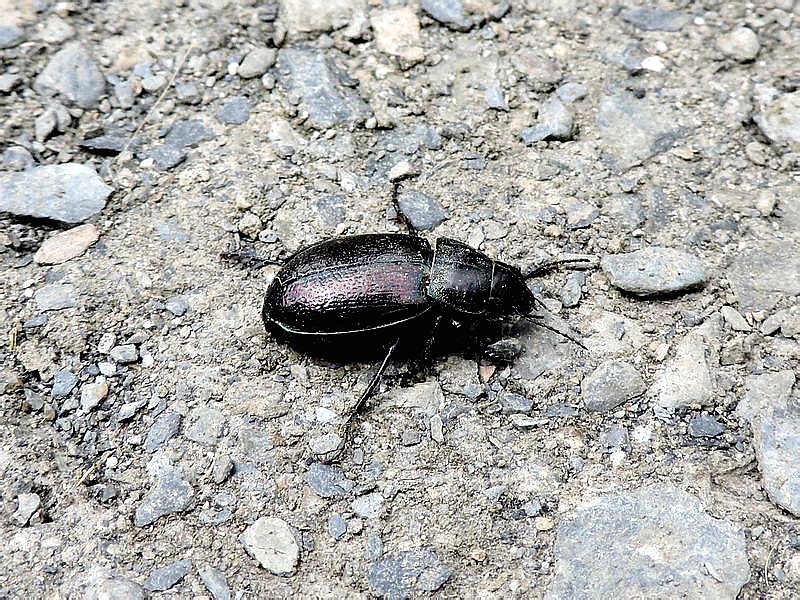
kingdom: Animalia
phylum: Arthropoda
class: Insecta
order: Coleoptera
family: Carabidae
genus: Zabrus
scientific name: Zabrus aurichalceus
